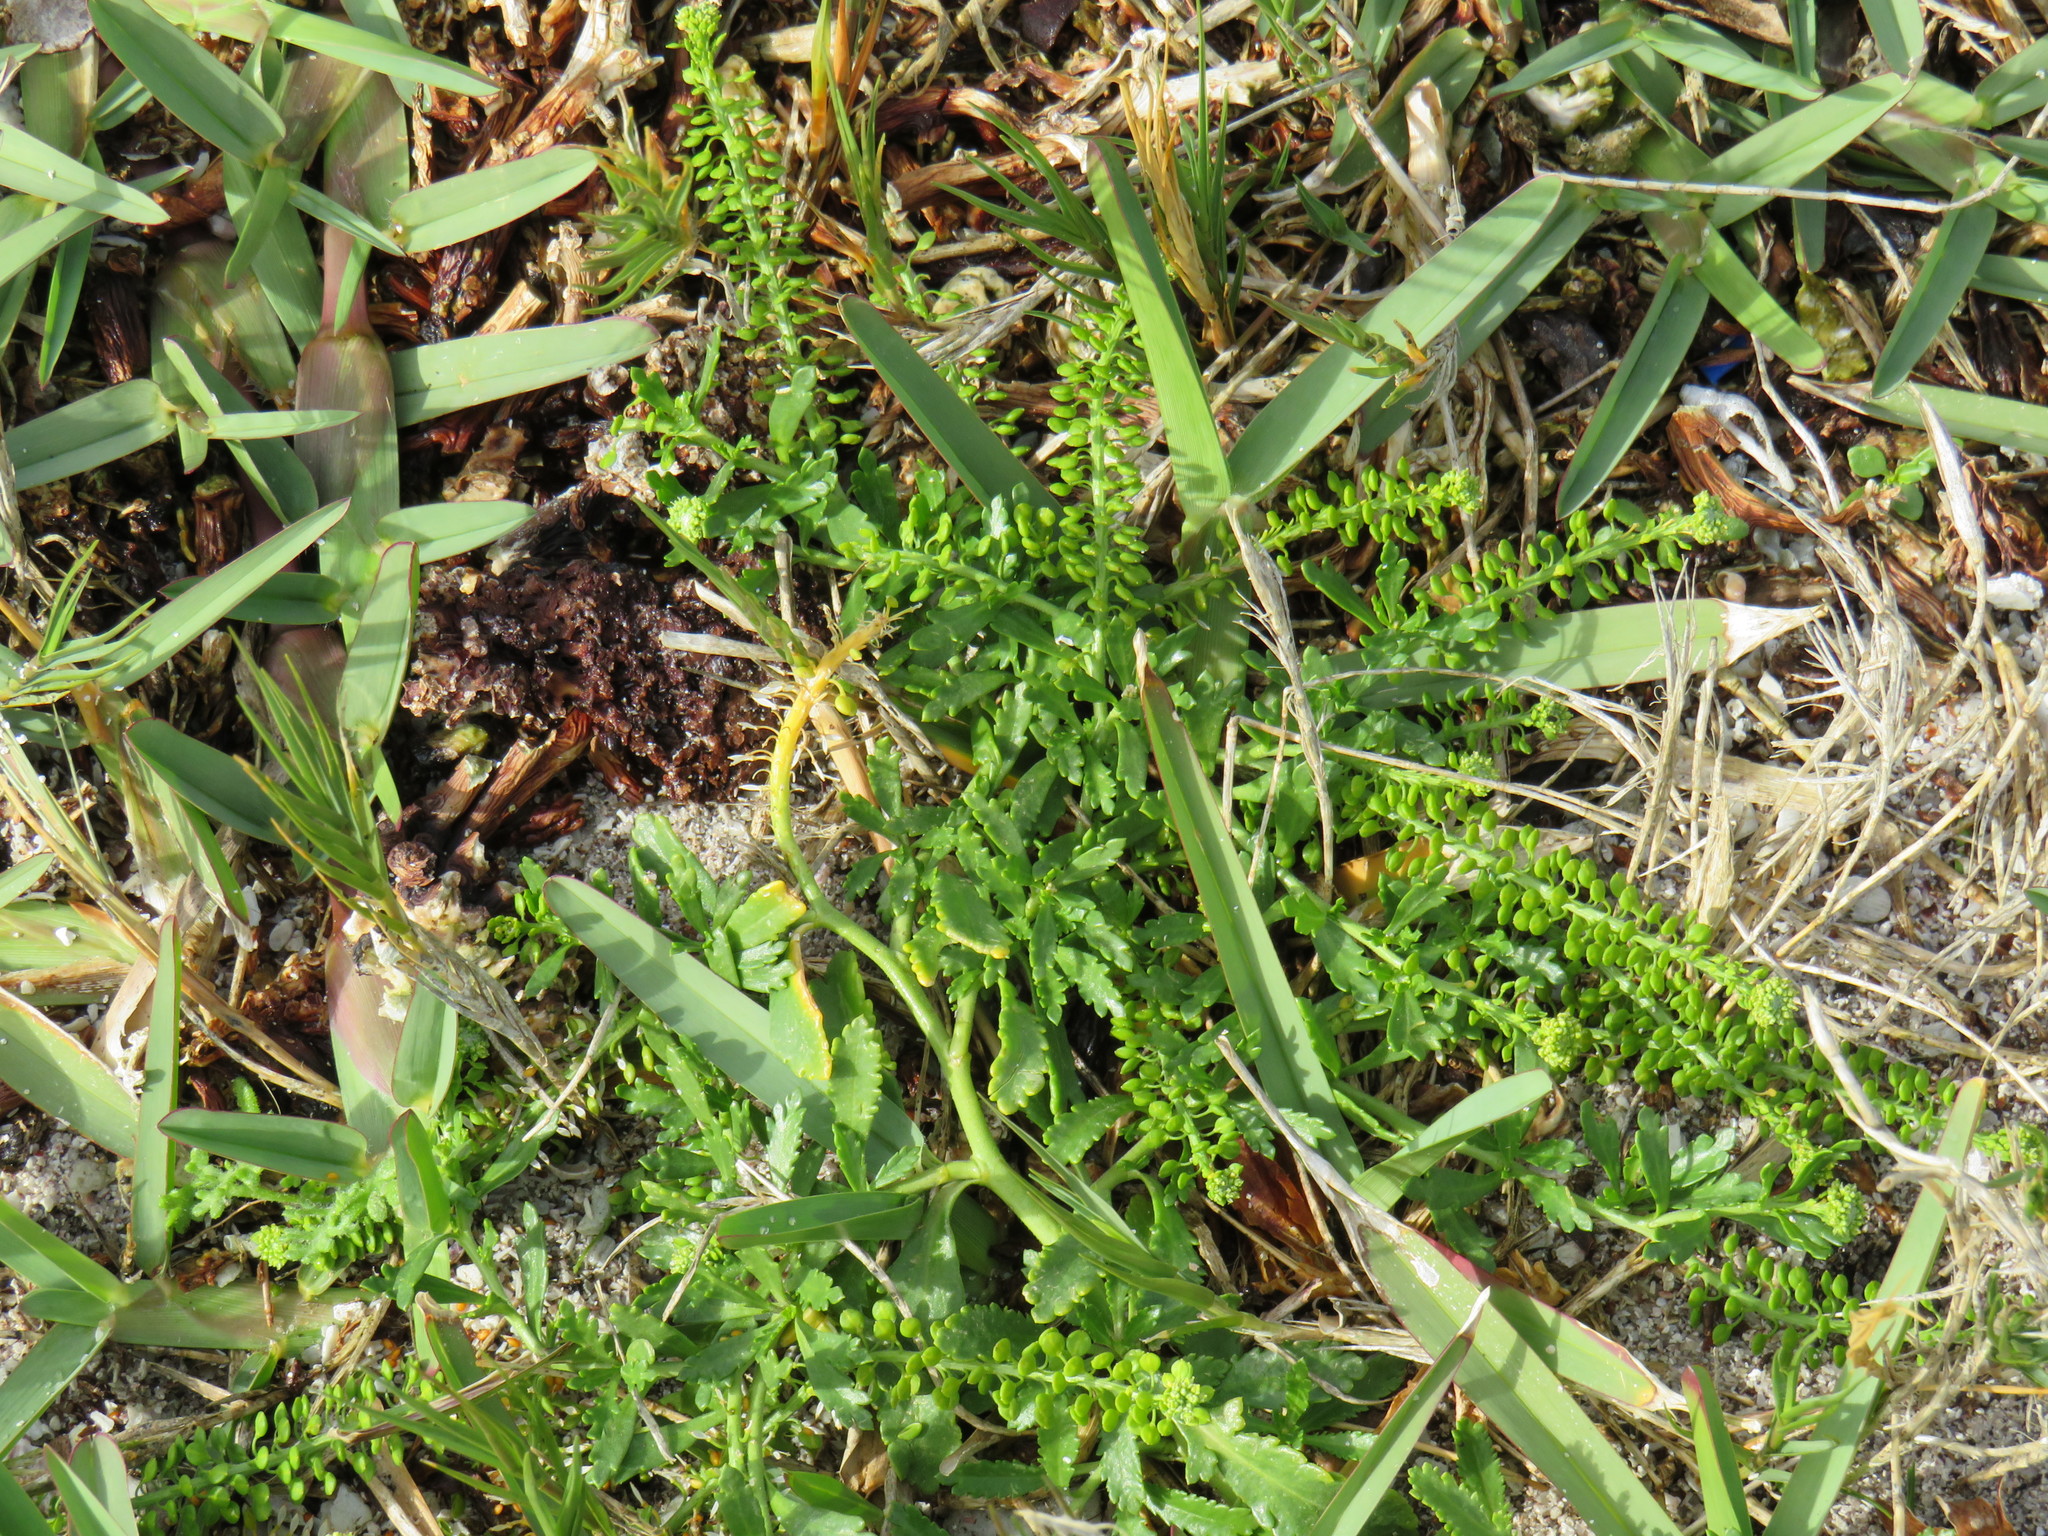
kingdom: Plantae
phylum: Tracheophyta
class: Magnoliopsida
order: Brassicales
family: Brassicaceae
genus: Lepidium
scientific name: Lepidium capense
